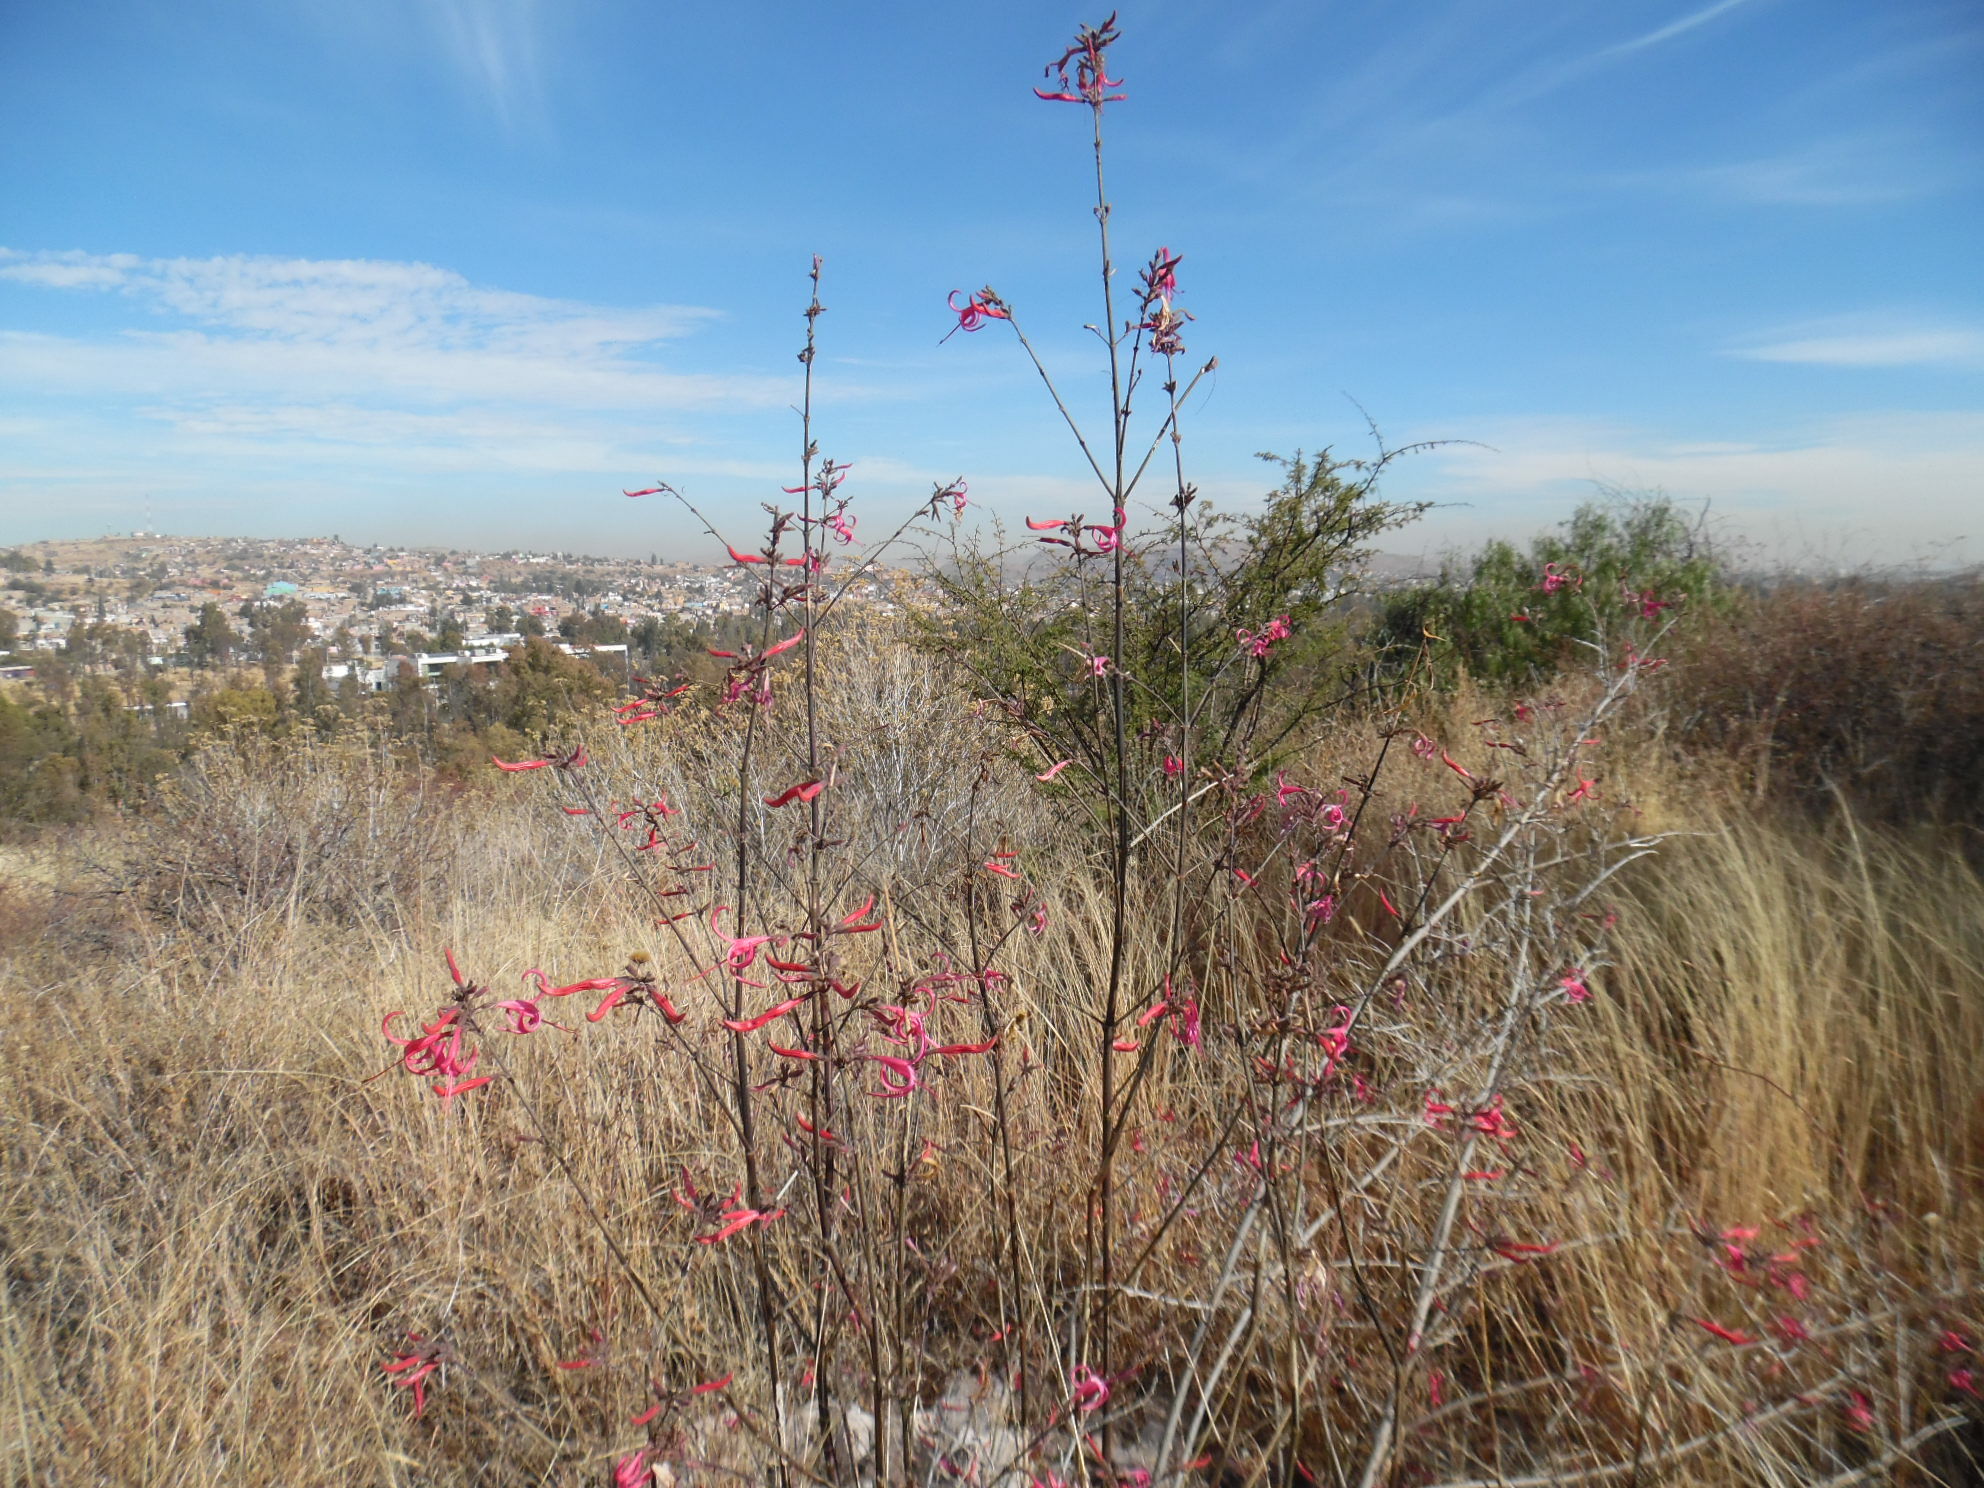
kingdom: Plantae
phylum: Tracheophyta
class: Magnoliopsida
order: Lamiales
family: Acanthaceae
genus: Anisacanthus
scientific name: Anisacanthus puberulus
